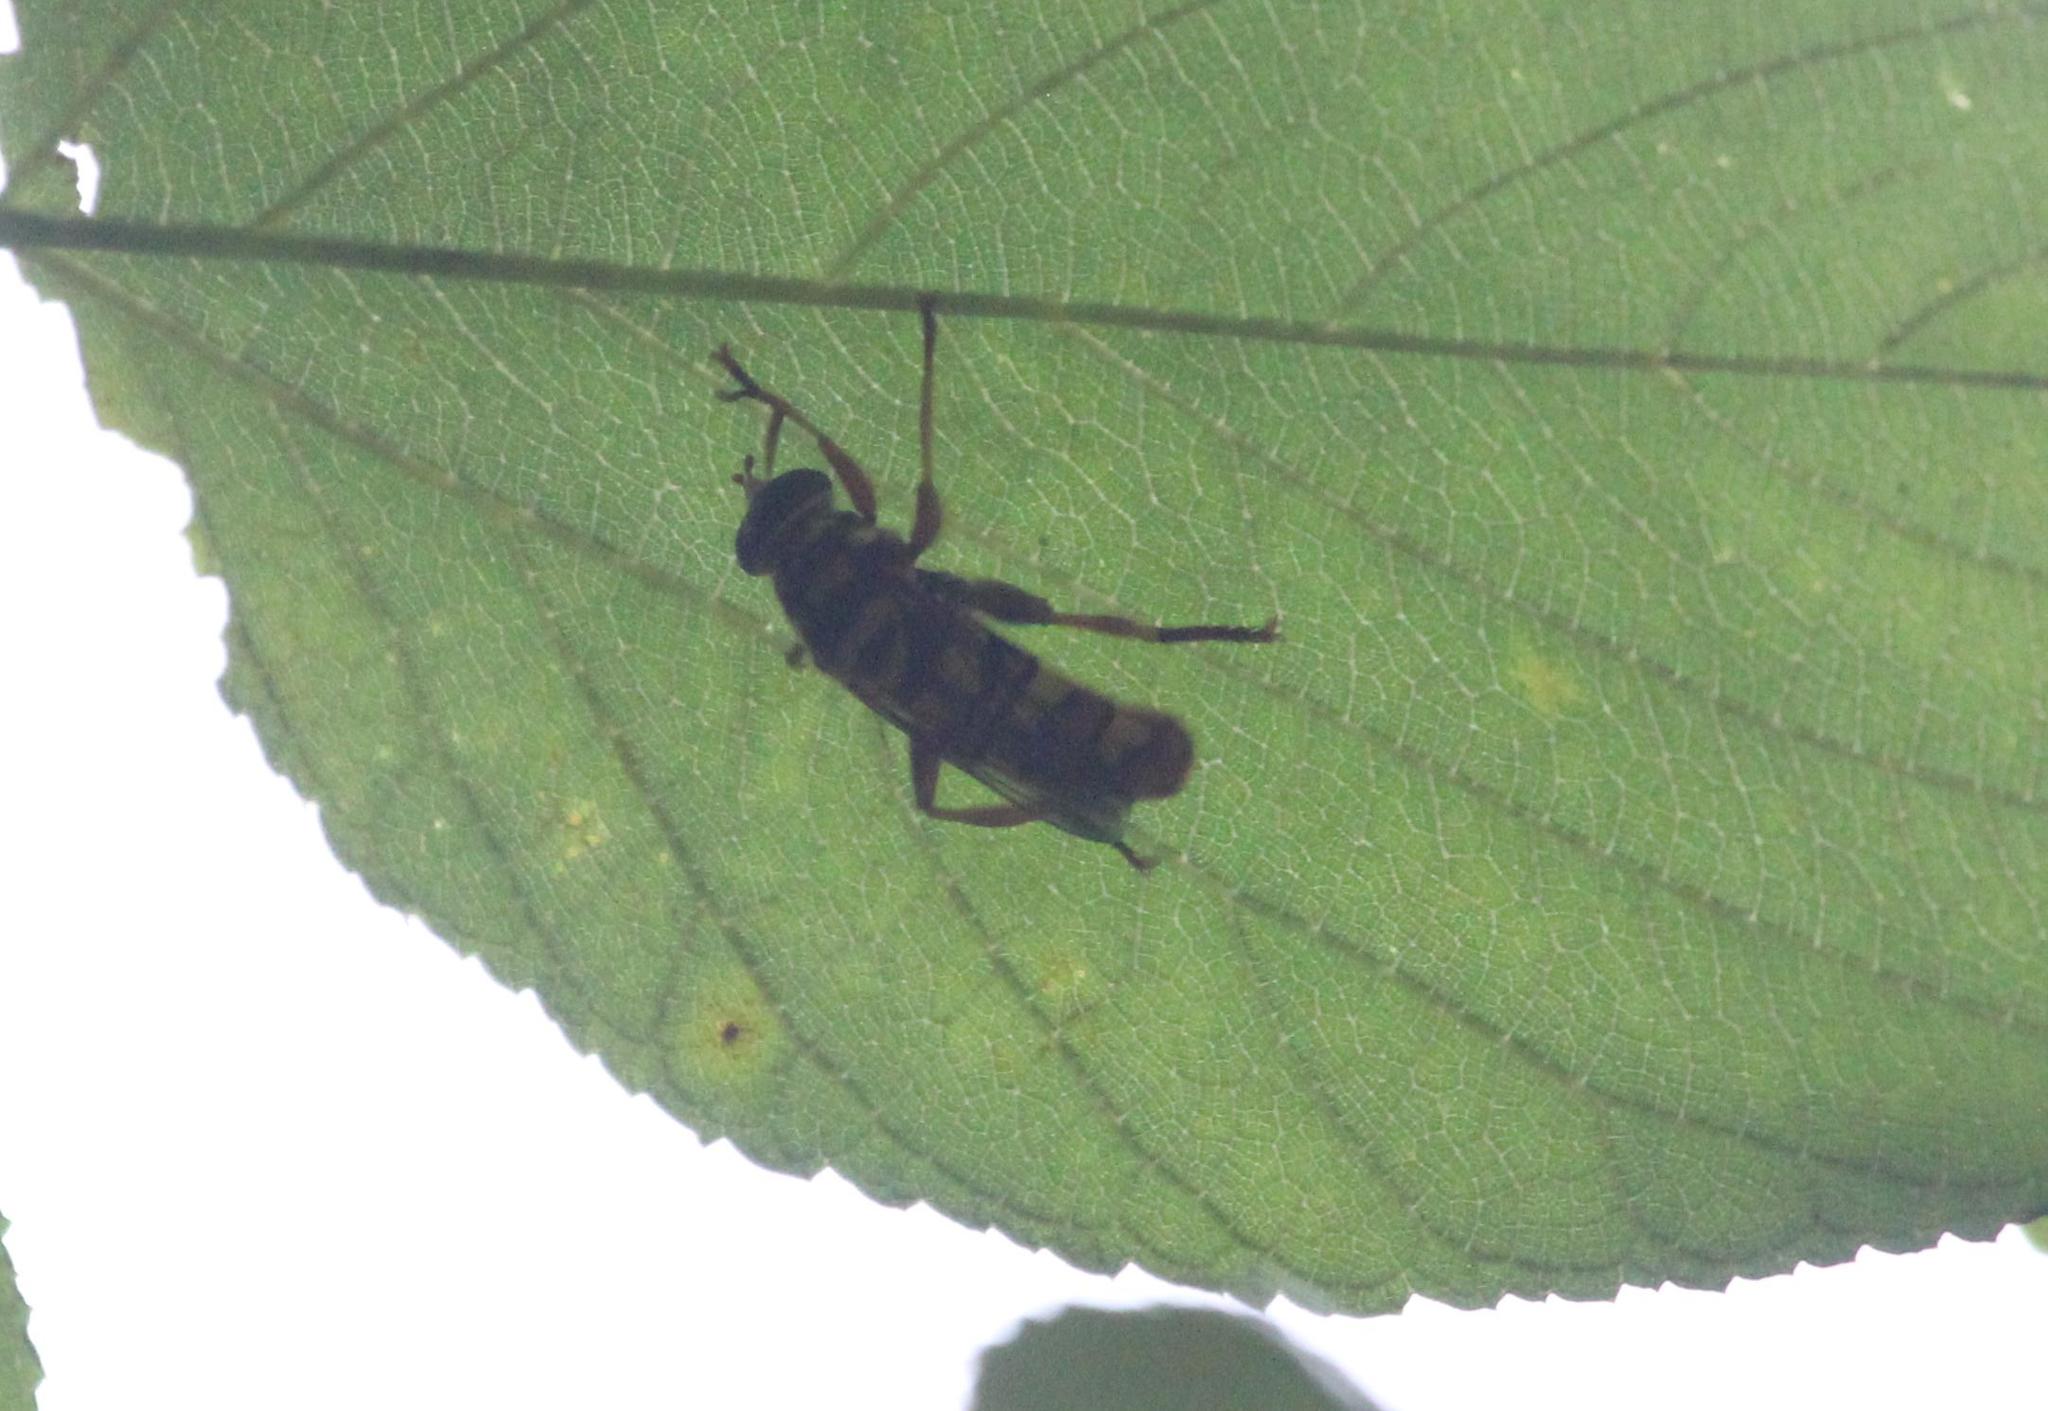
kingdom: Animalia
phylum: Arthropoda
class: Insecta
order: Diptera
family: Syrphidae
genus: Milesia
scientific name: Milesia virginiensis
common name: Virginia giant
